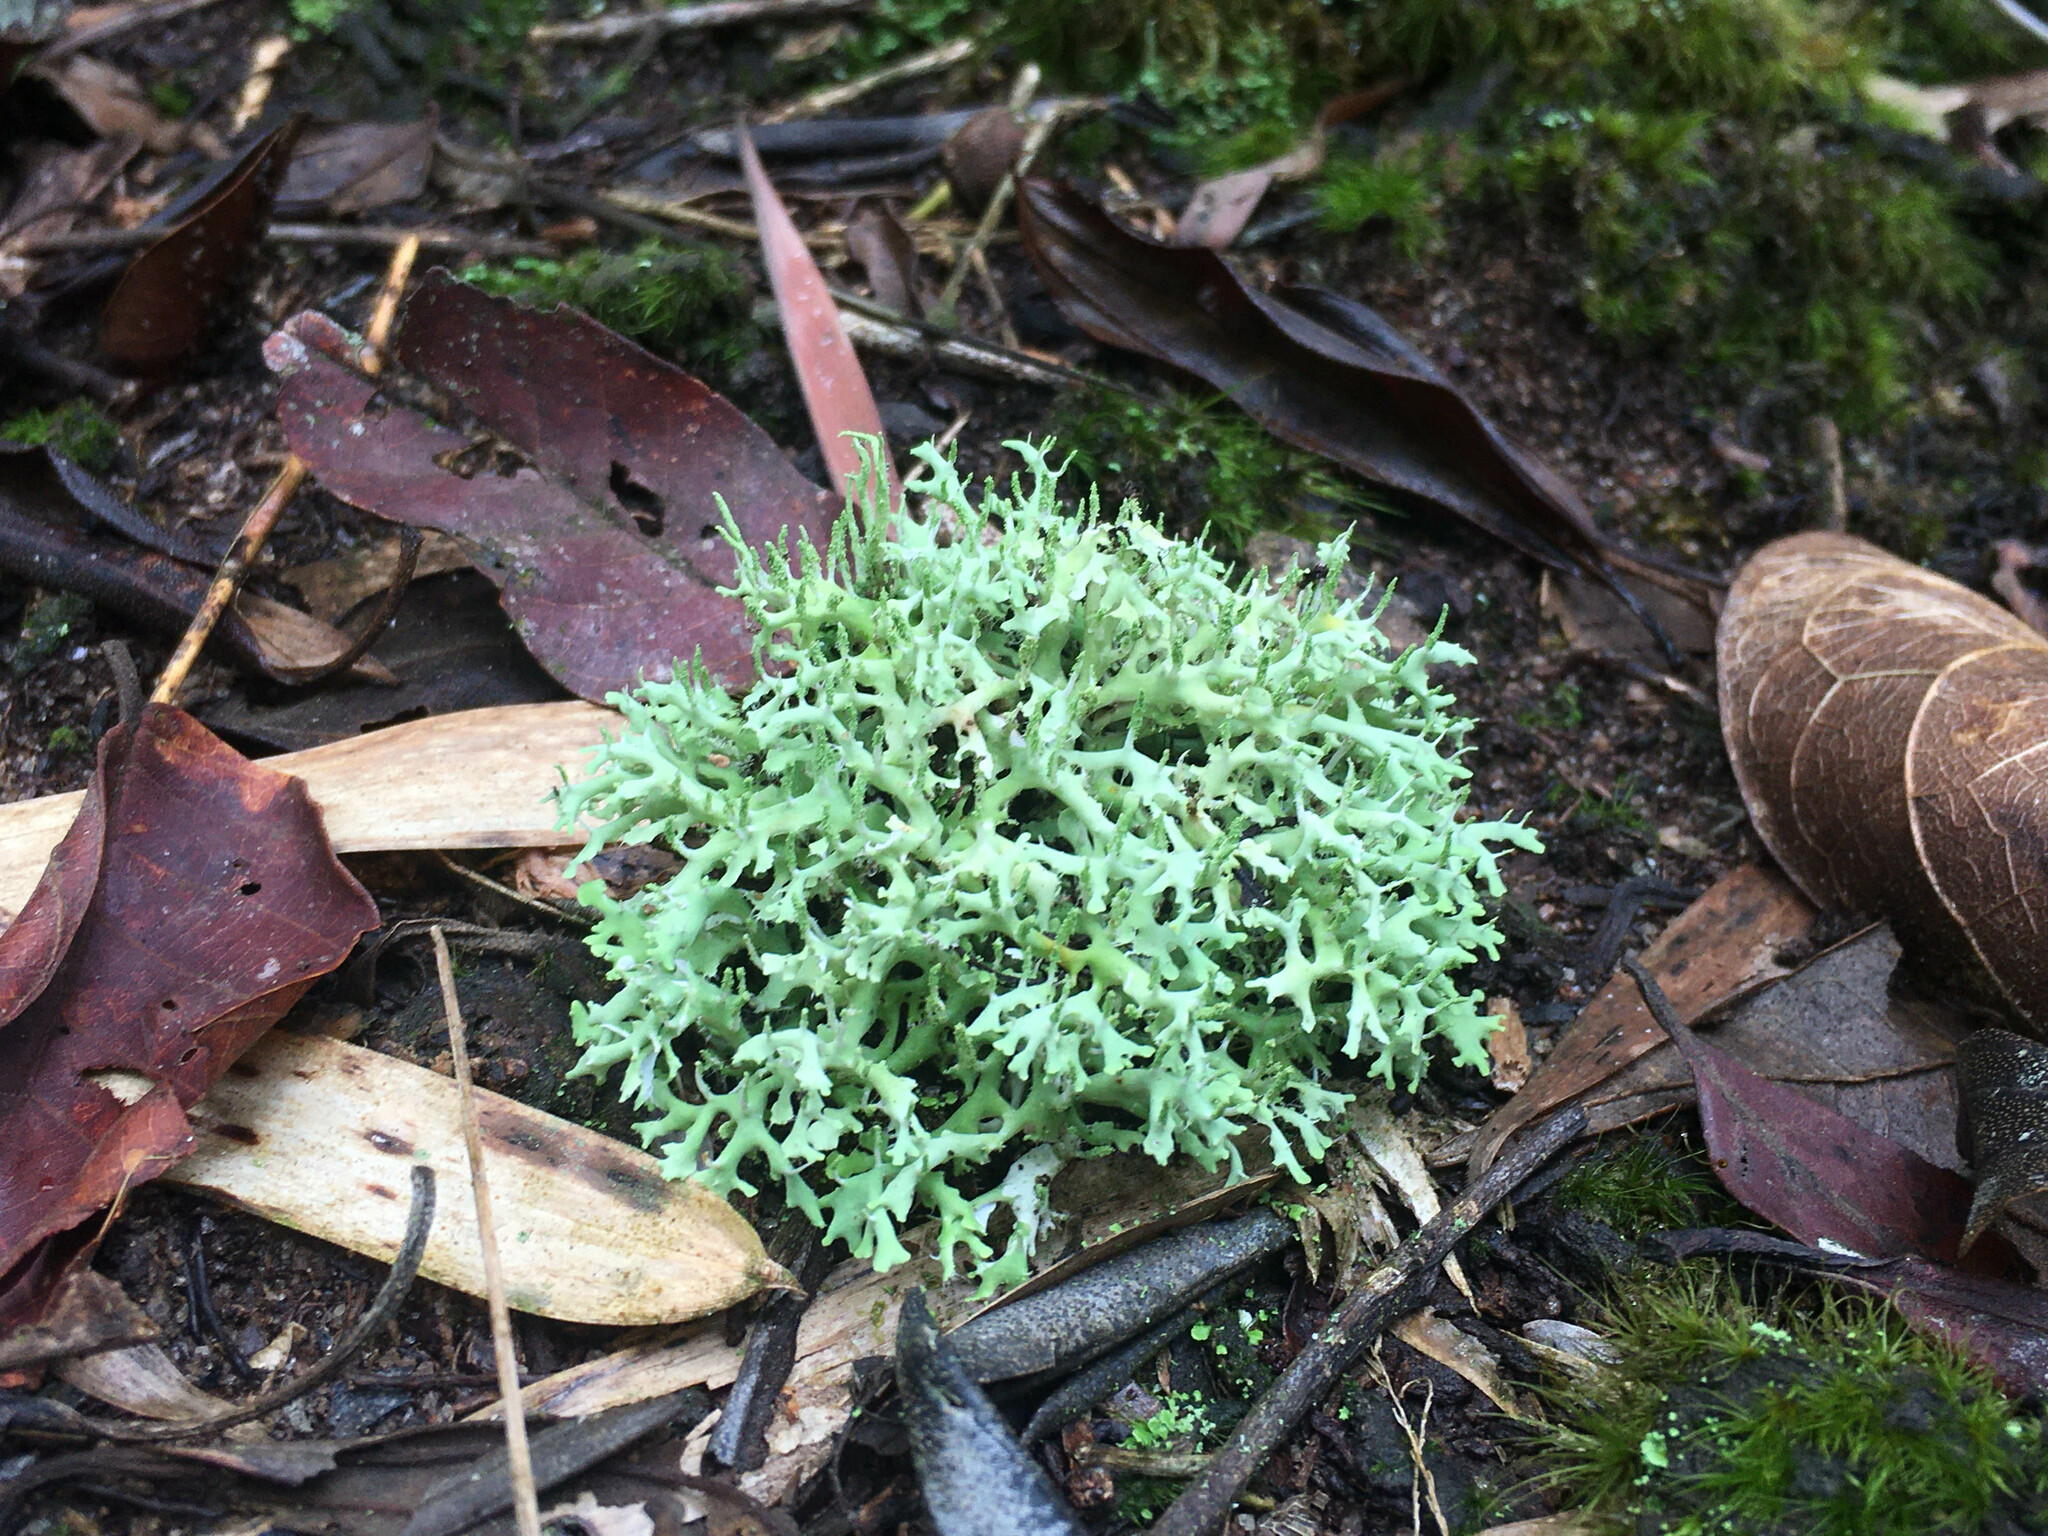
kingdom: Fungi
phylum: Ascomycota
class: Lecanoromycetes
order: Lecanorales
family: Cladoniaceae
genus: Cladonia
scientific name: Cladonia ceratophylla
